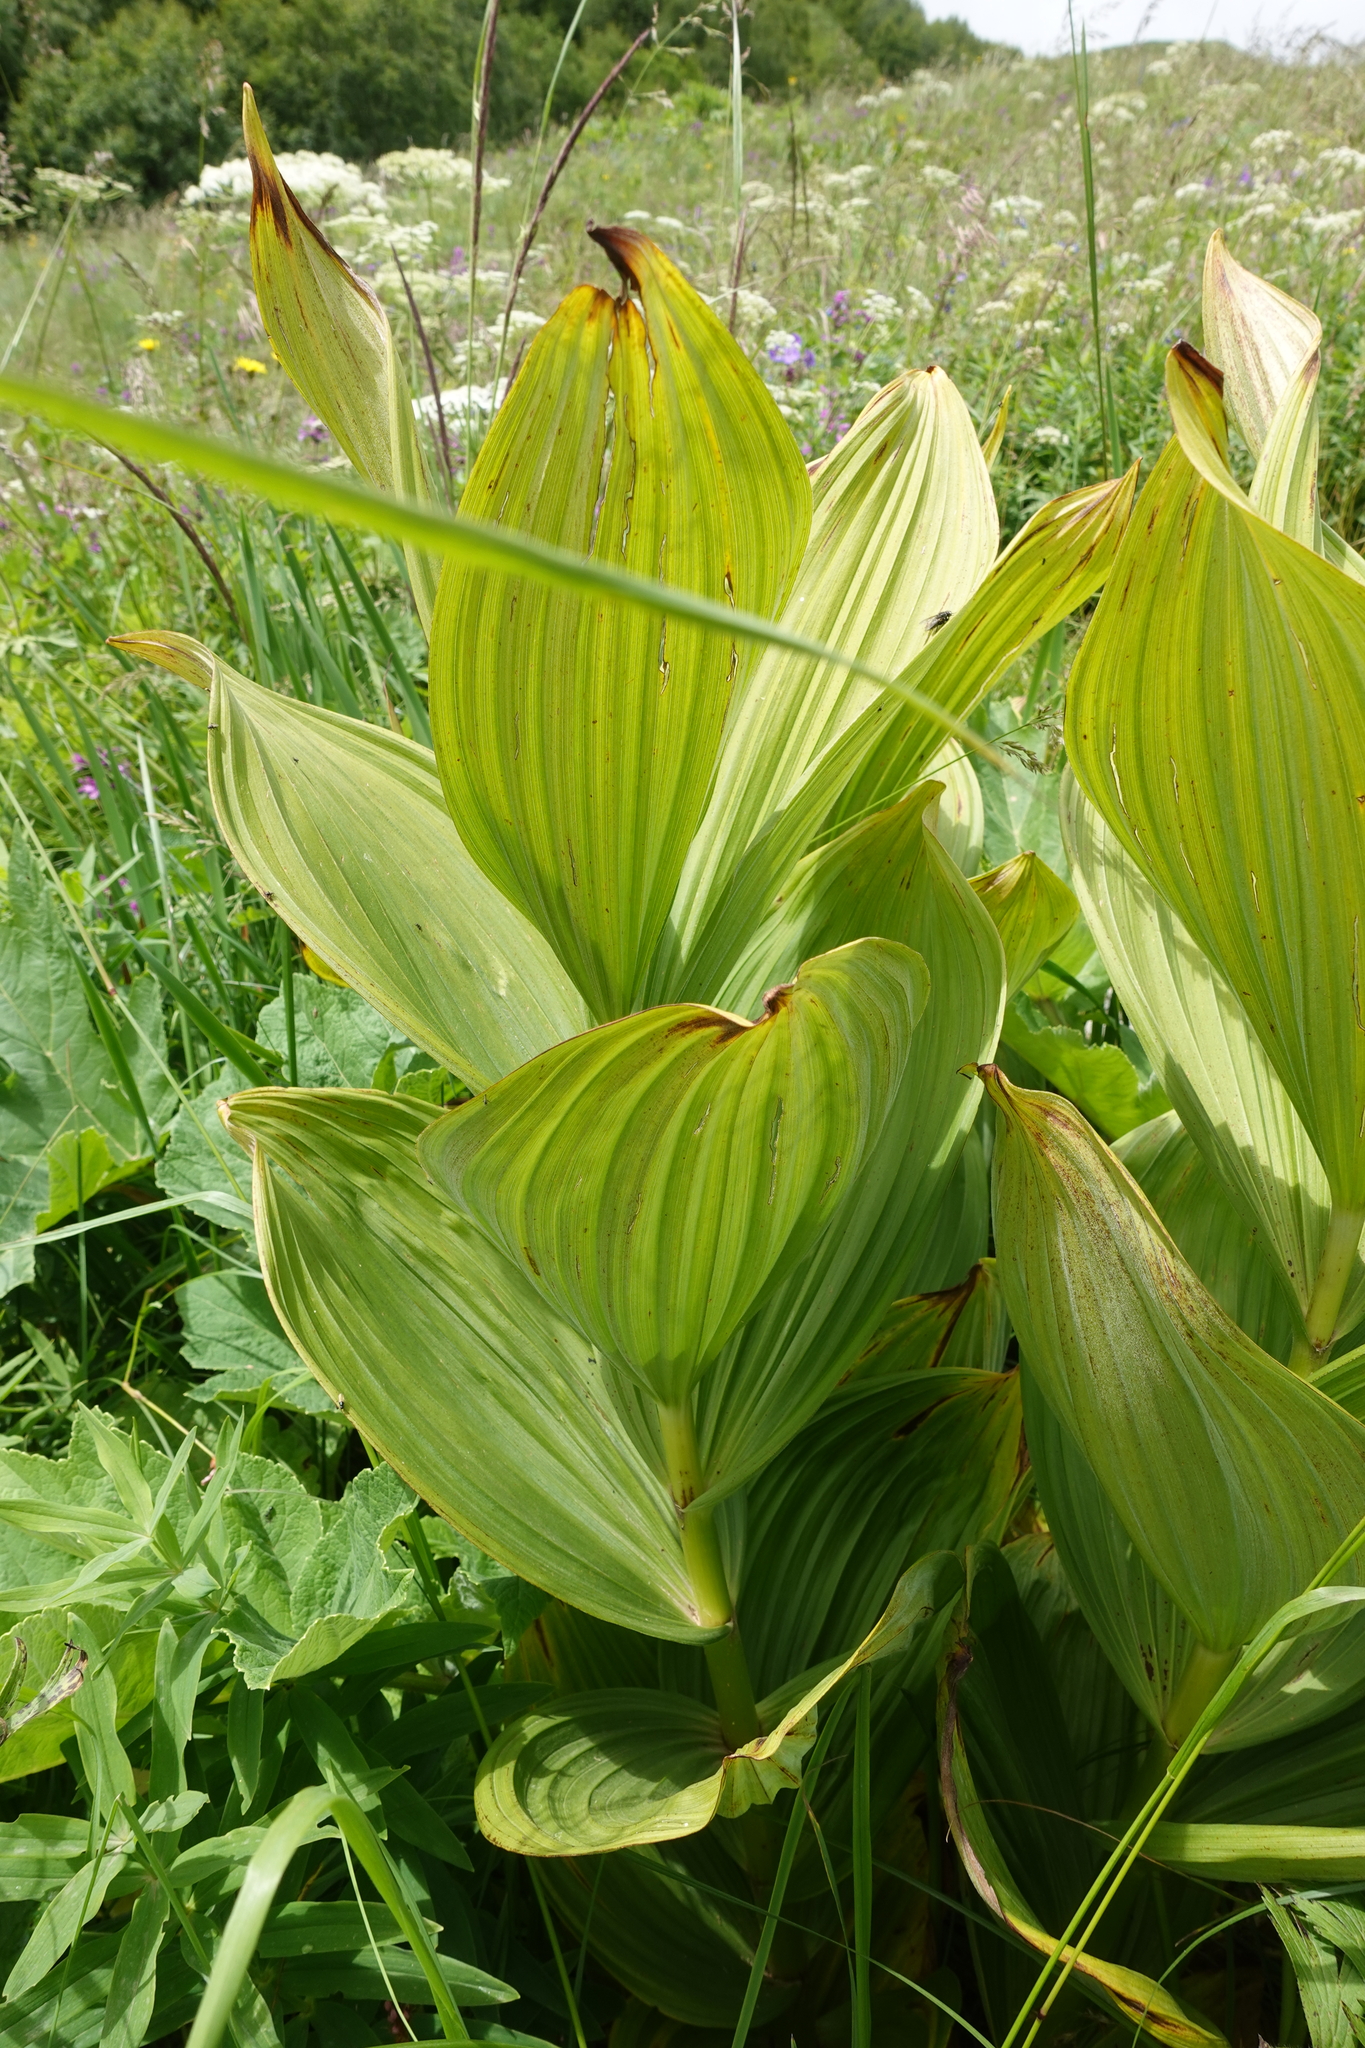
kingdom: Plantae
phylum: Tracheophyta
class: Liliopsida
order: Liliales
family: Melanthiaceae
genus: Veratrum
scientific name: Veratrum lobelianum
